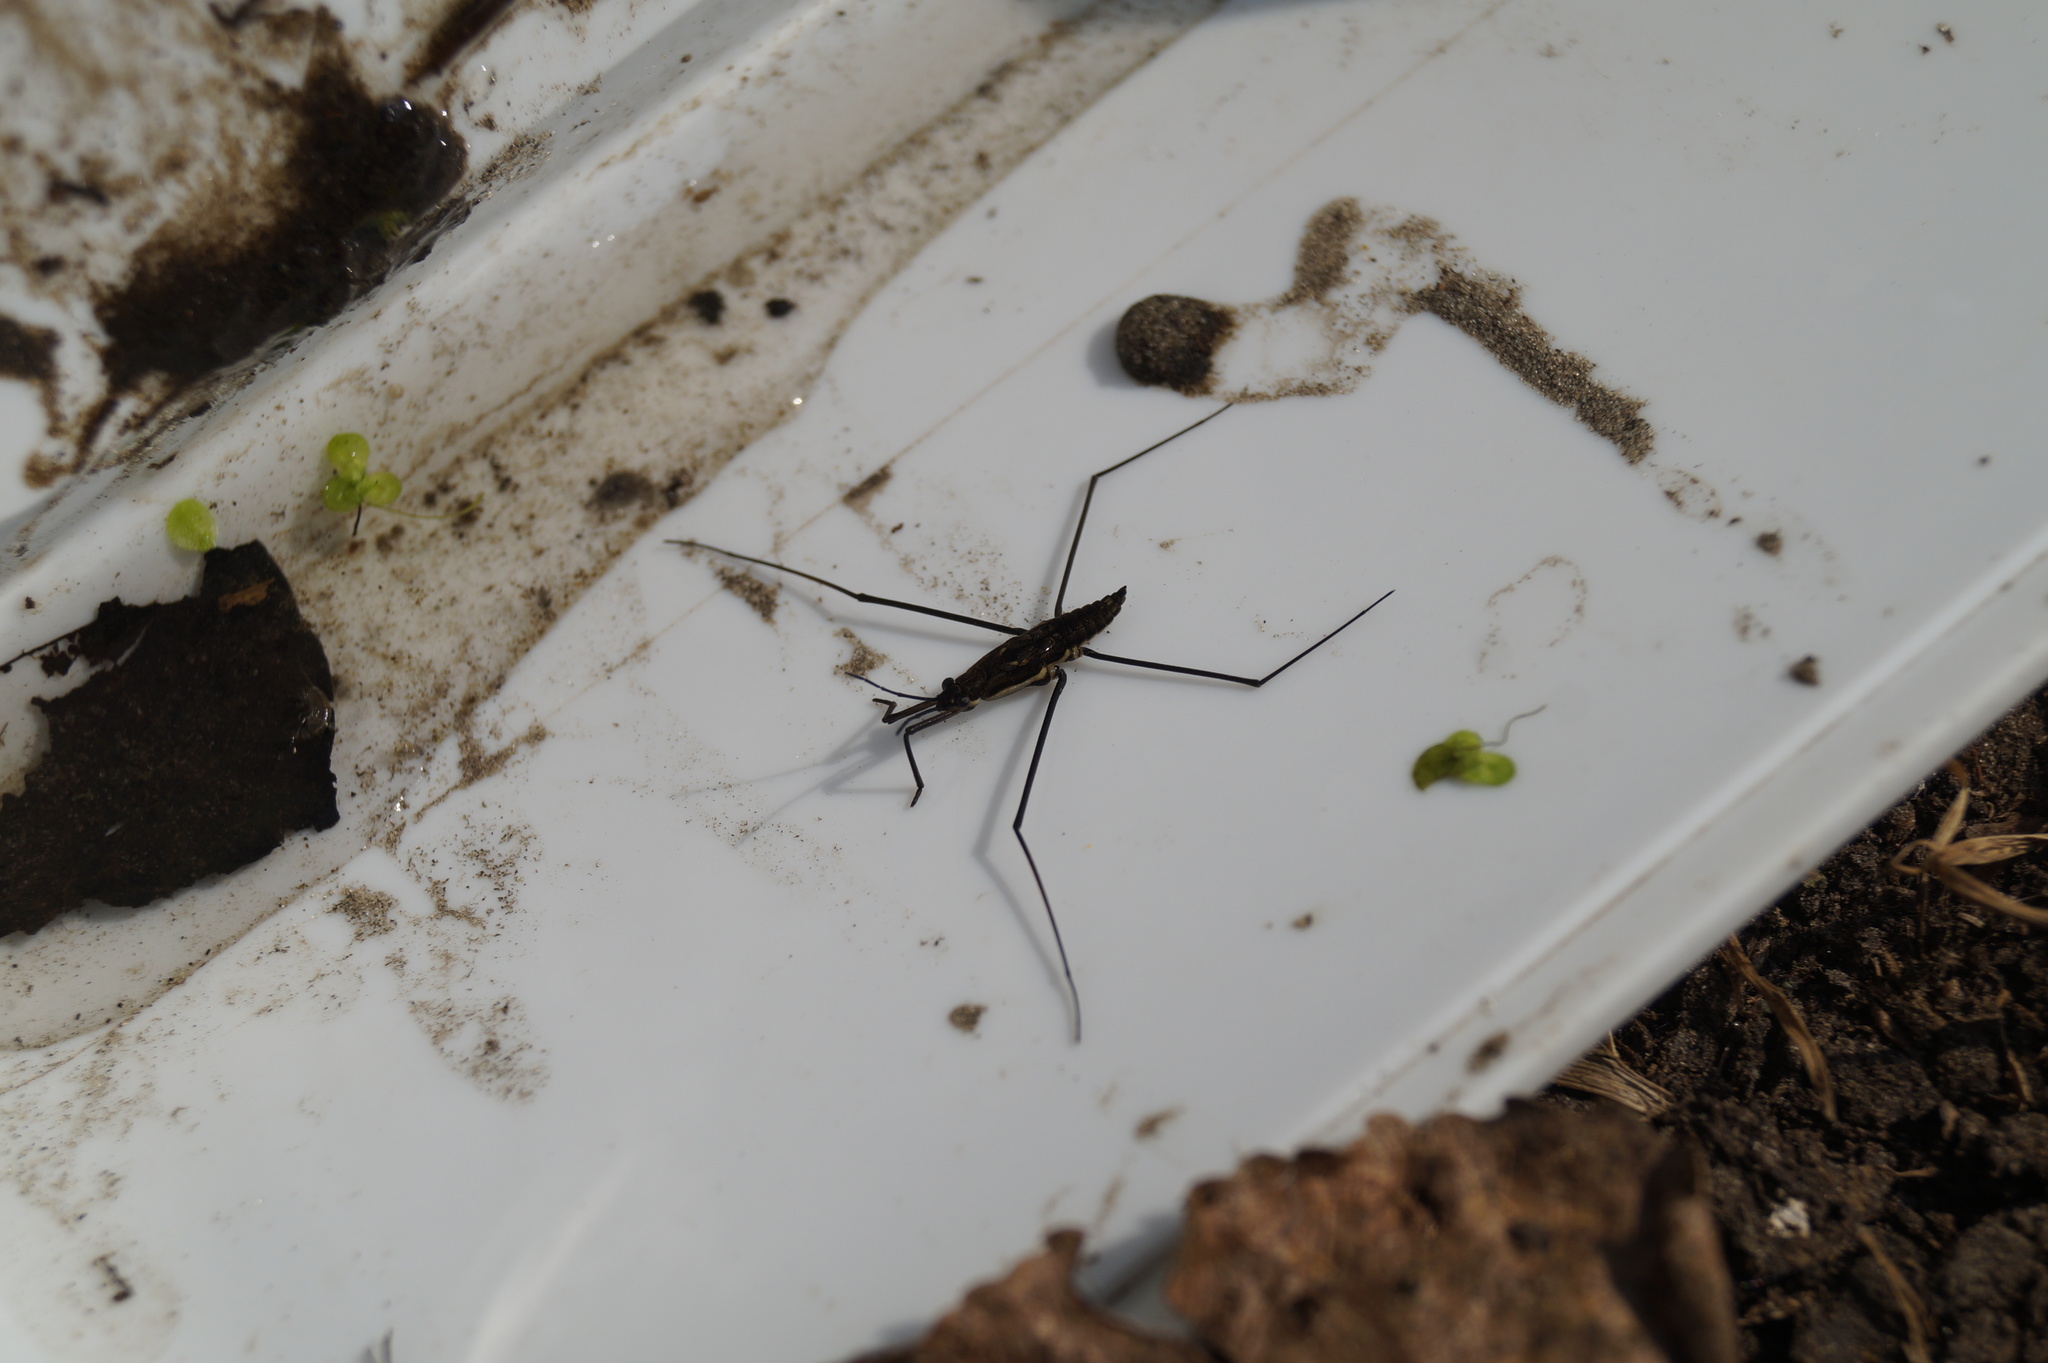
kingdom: Animalia
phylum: Arthropoda
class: Insecta
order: Hemiptera
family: Gerridae
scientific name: Gerridae
